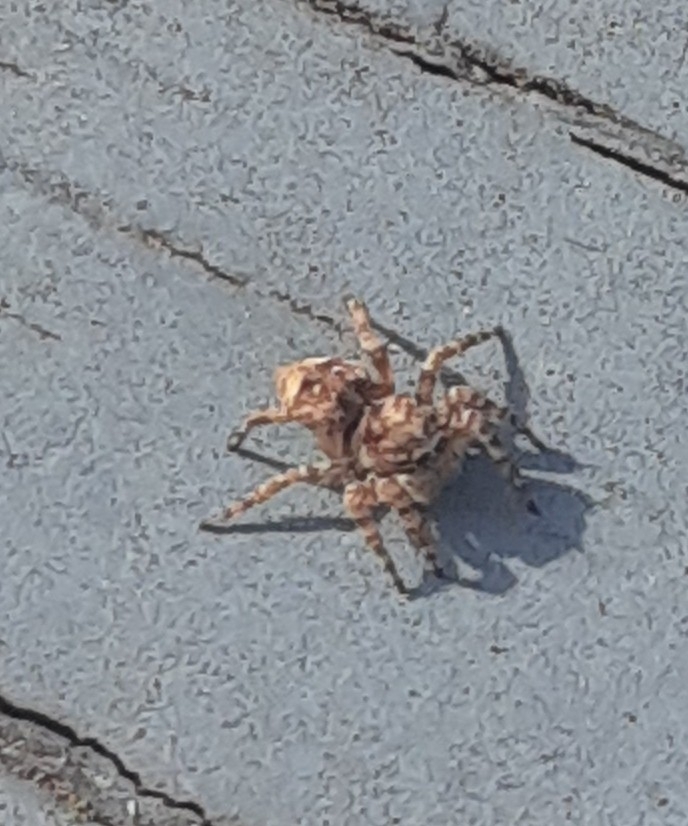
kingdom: Animalia
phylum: Arthropoda
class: Arachnida
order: Araneae
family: Salticidae
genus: Attulus
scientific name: Attulus fasciger
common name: Asiatic wall jumping spider
